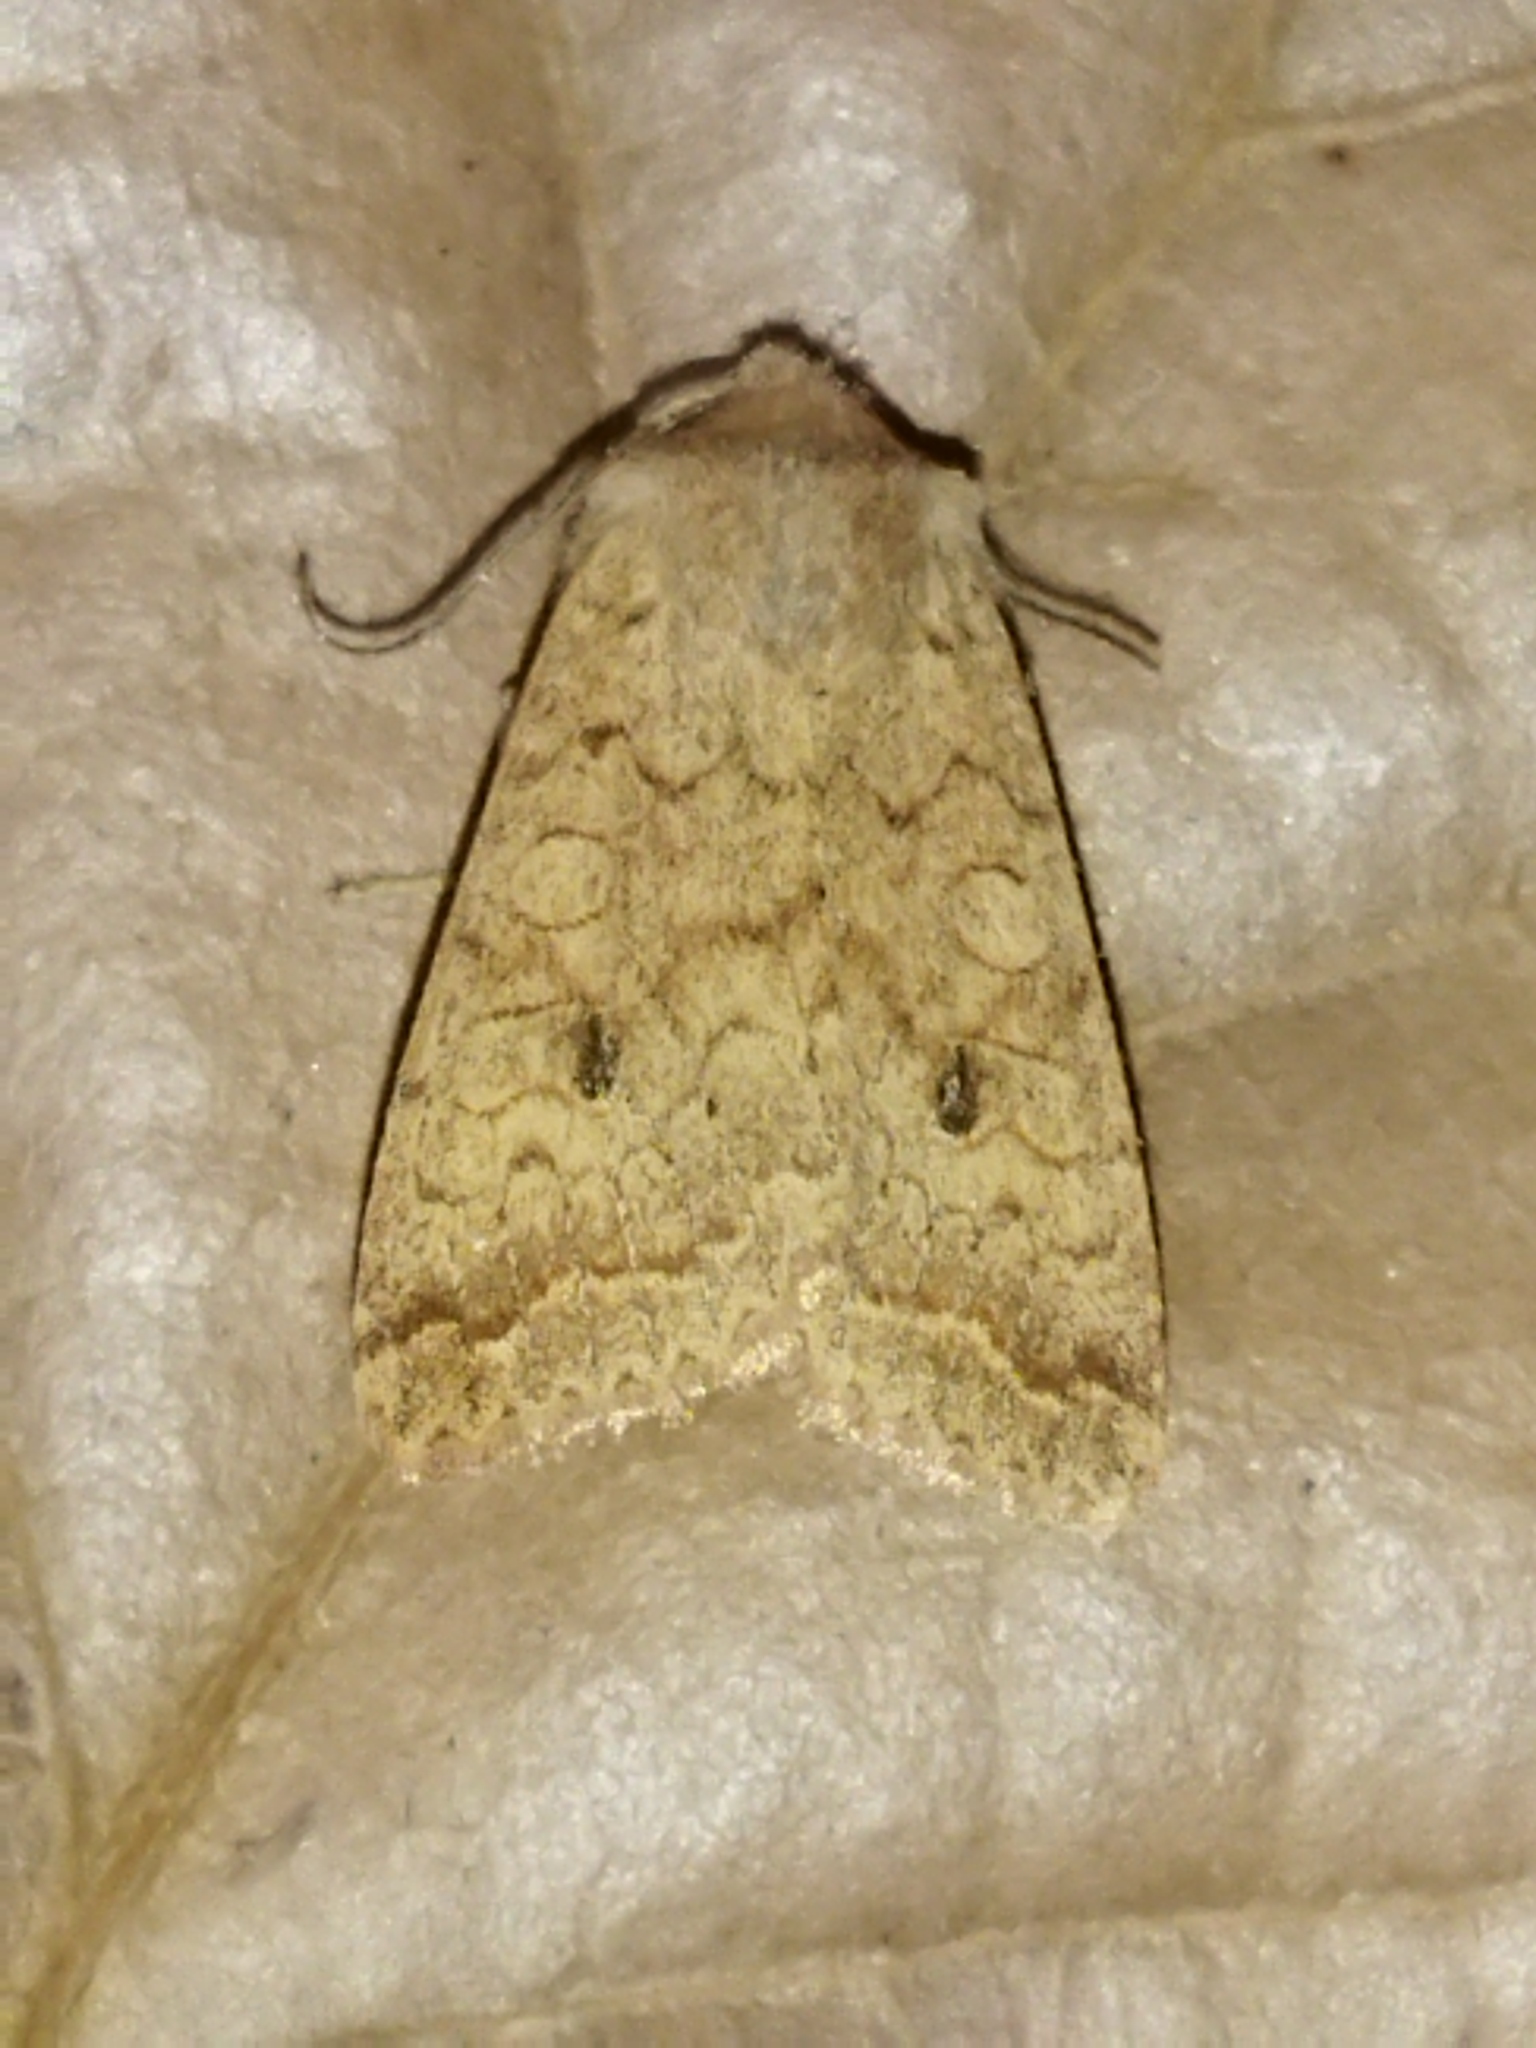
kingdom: Animalia
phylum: Arthropoda
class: Insecta
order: Lepidoptera
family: Noctuidae
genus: Sunira
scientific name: Sunira circellaris
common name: Brick
